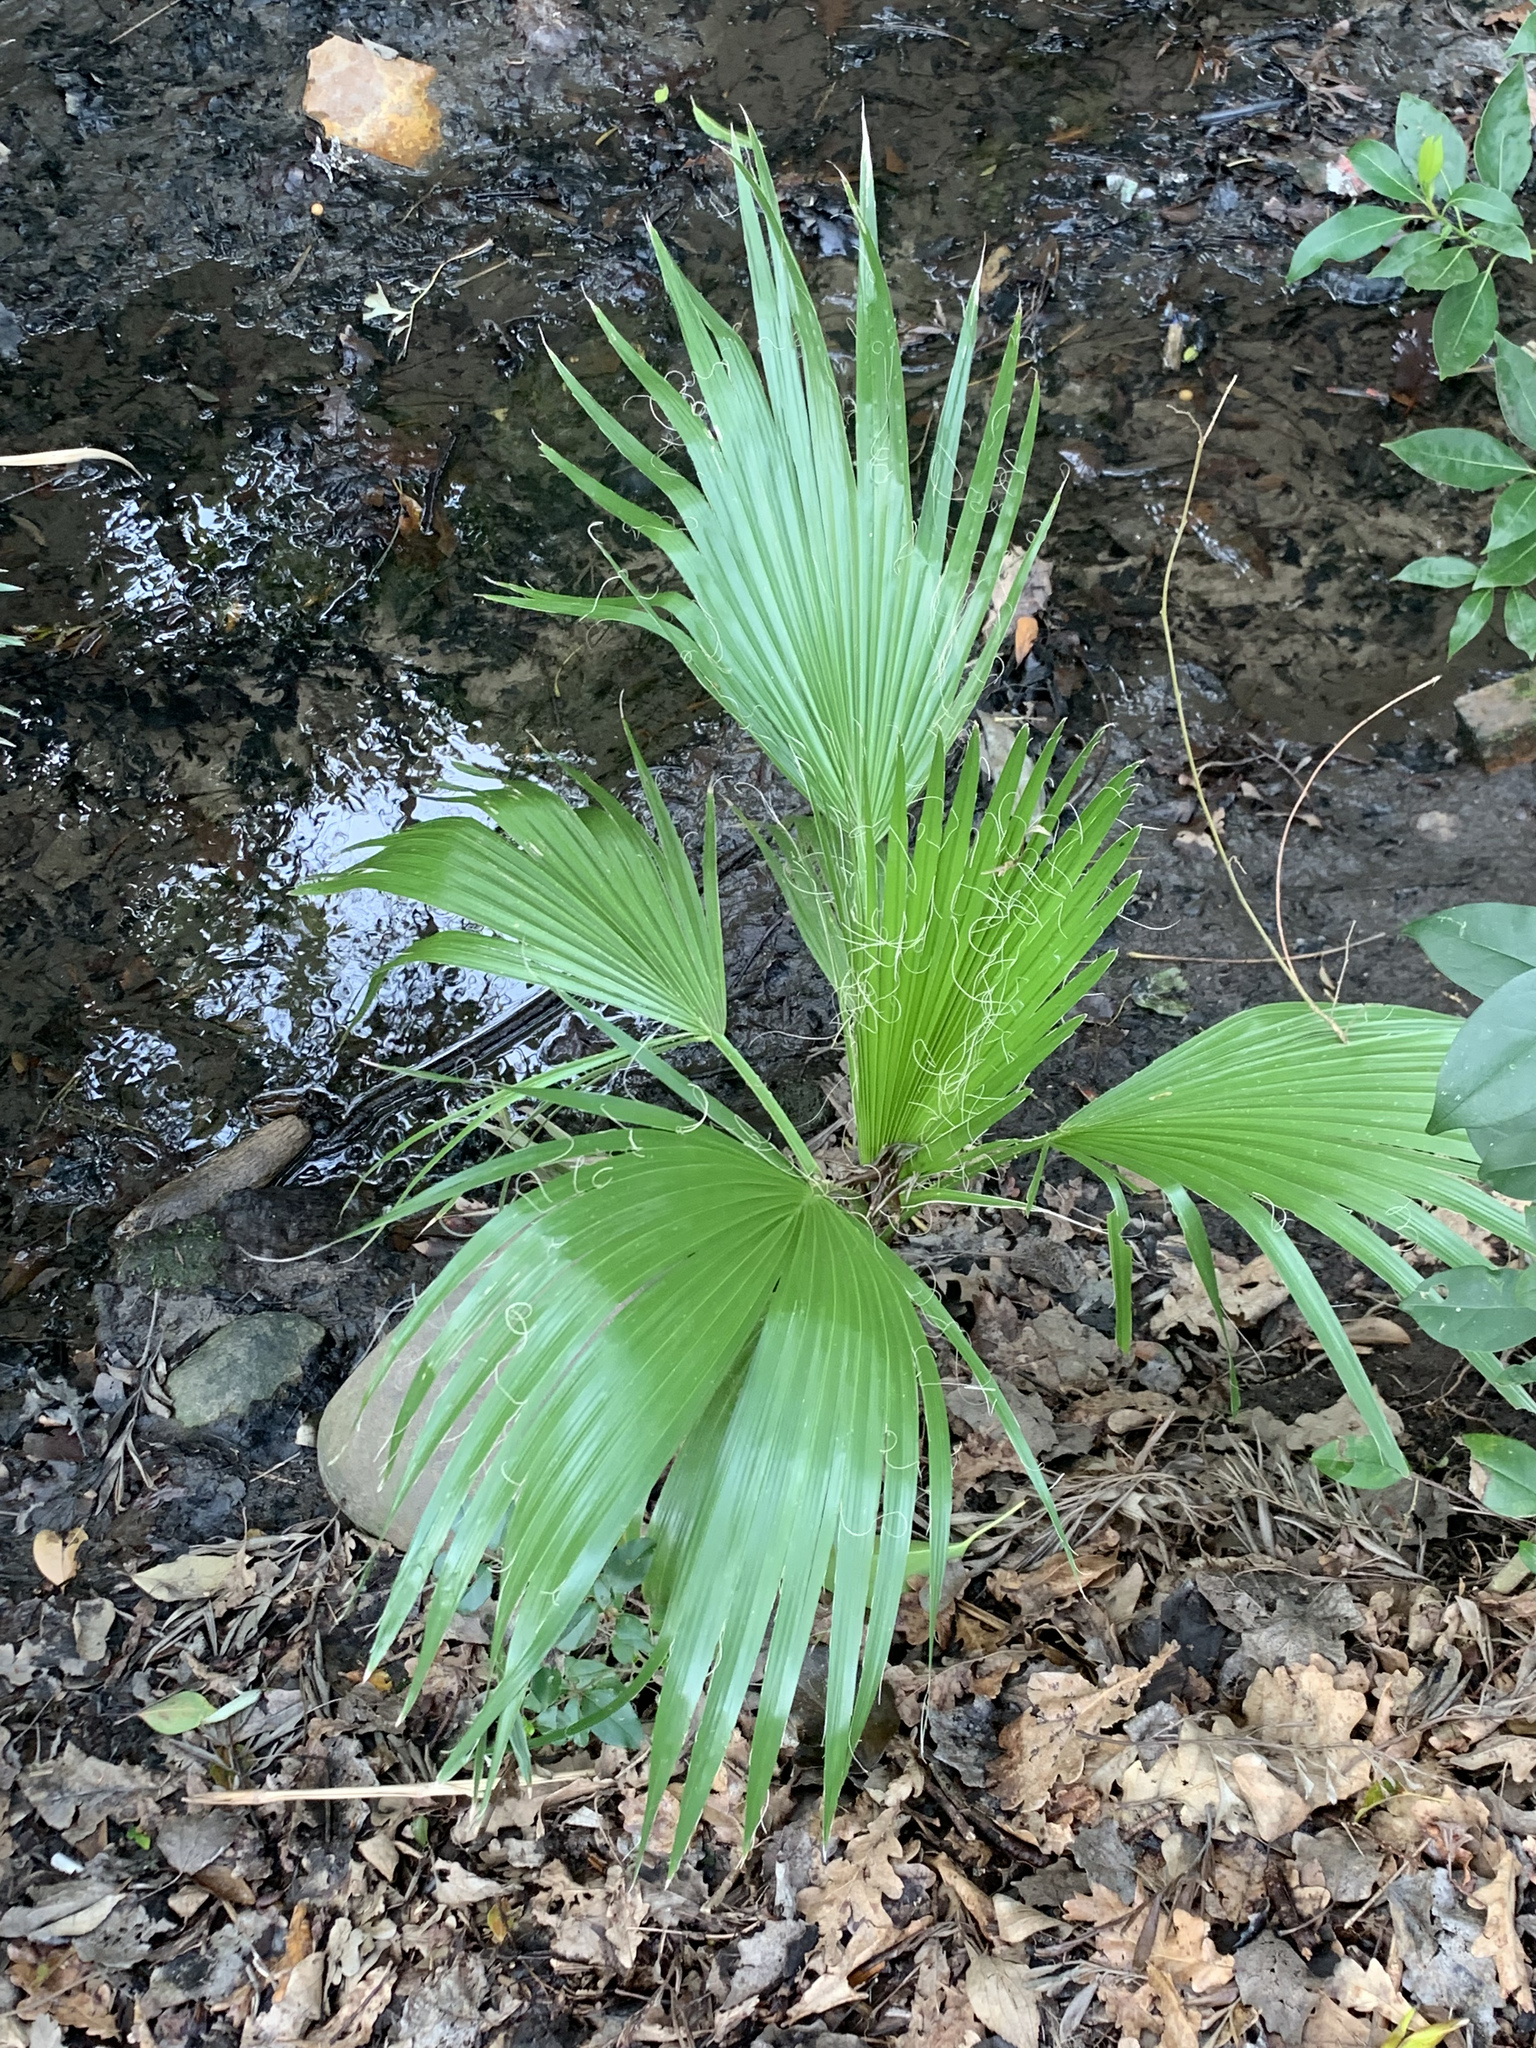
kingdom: Plantae
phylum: Tracheophyta
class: Liliopsida
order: Arecales
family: Arecaceae
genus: Washingtonia
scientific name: Washingtonia robusta
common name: Mexican fan palm
